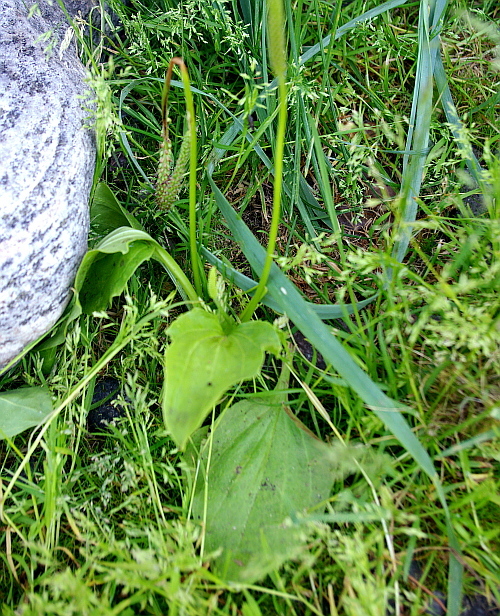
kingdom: Plantae
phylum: Tracheophyta
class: Magnoliopsida
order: Lamiales
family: Plantaginaceae
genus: Plantago
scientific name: Plantago major
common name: Common plantain
